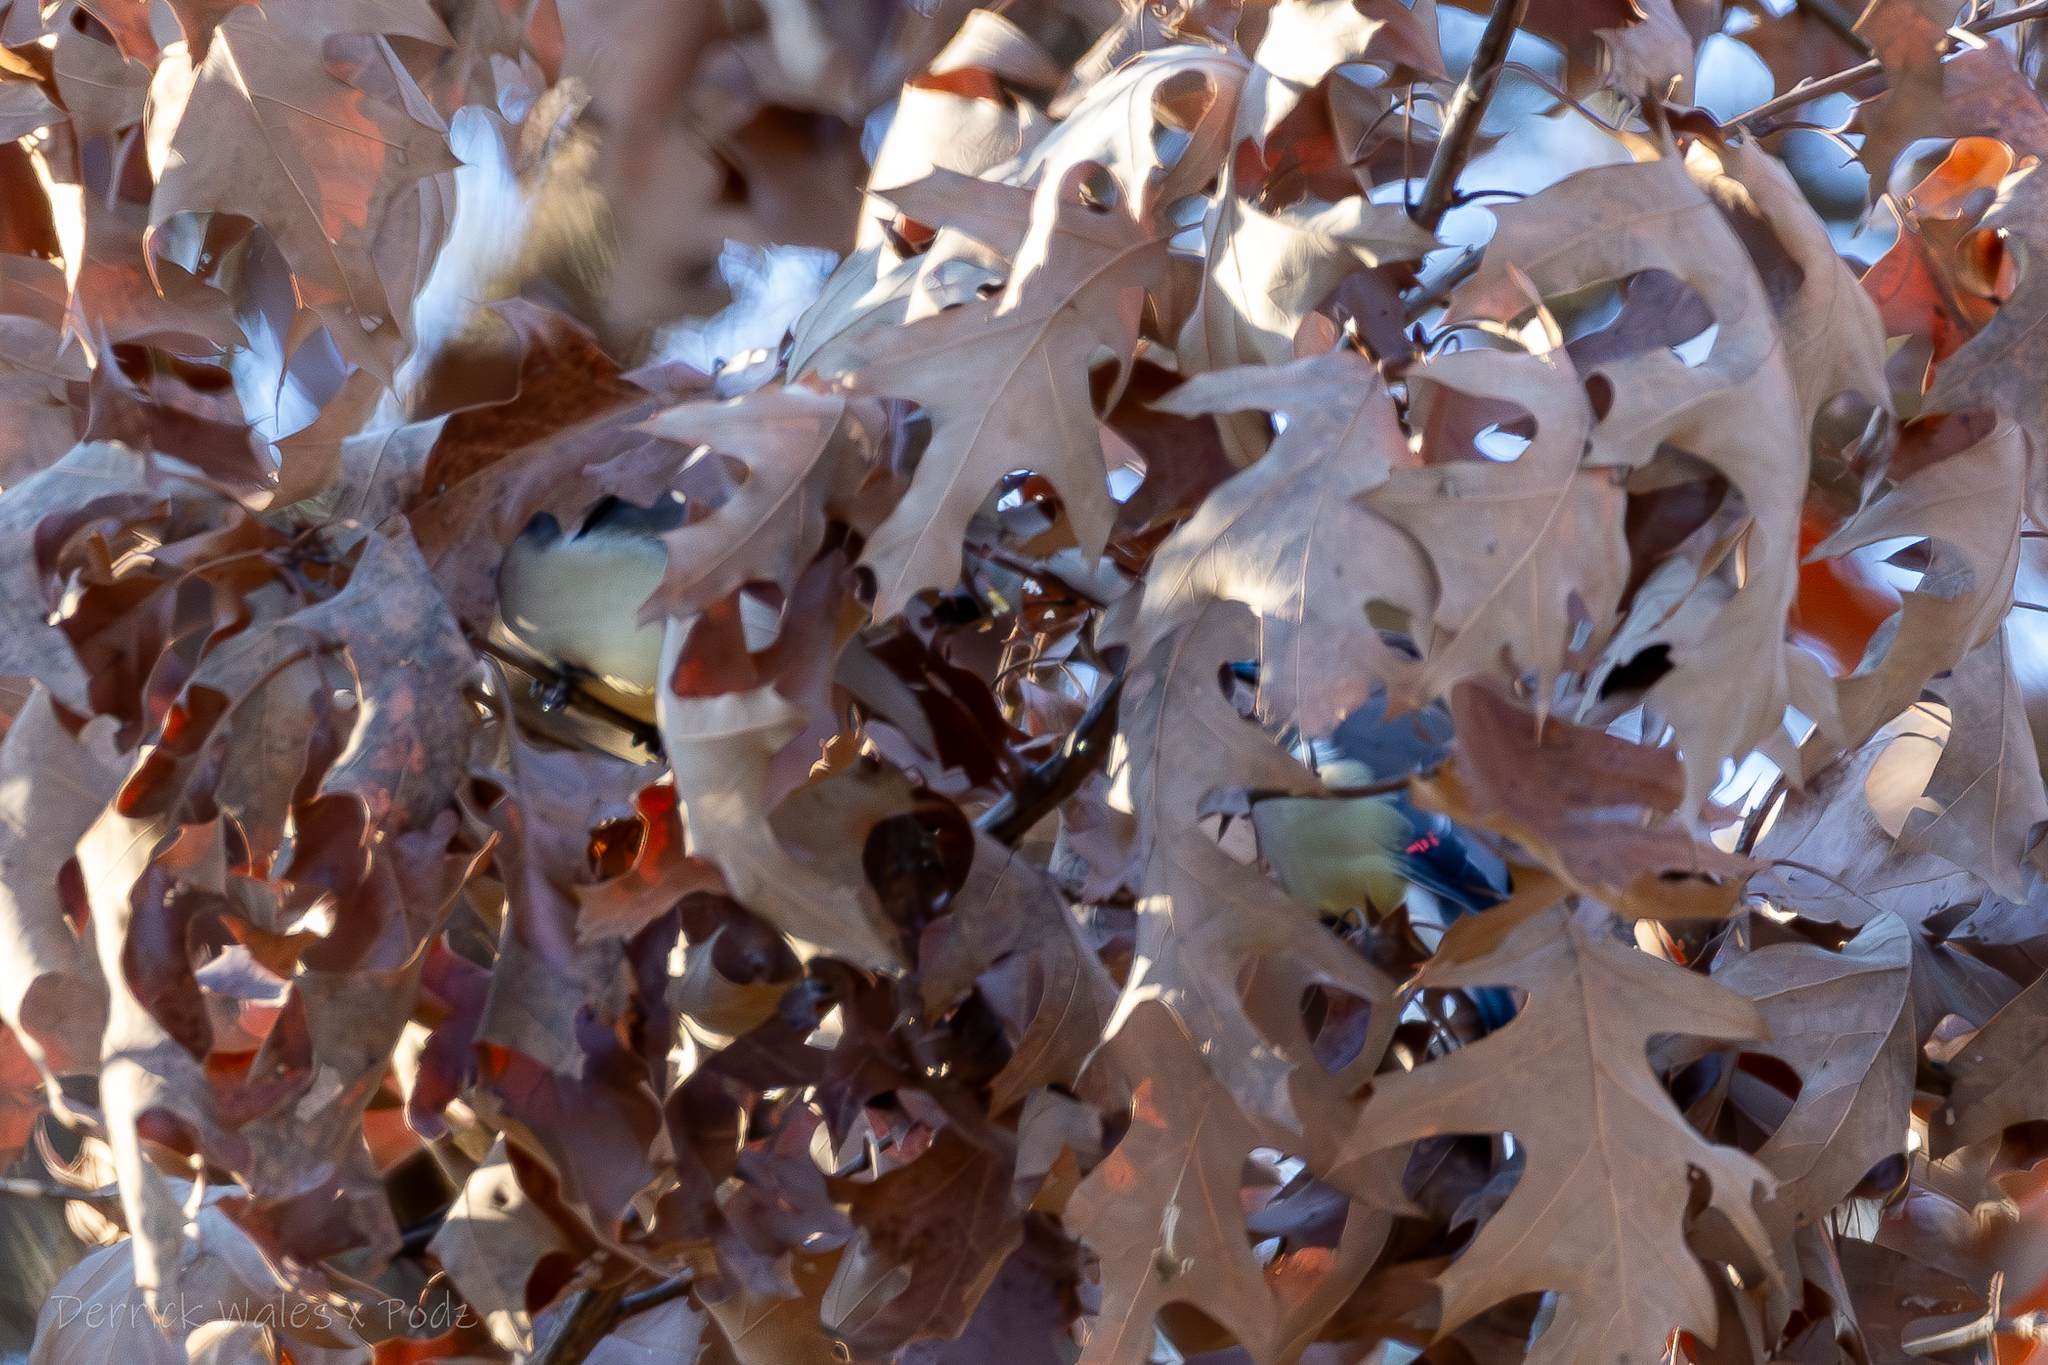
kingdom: Animalia
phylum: Chordata
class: Aves
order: Passeriformes
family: Bombycillidae
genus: Bombycilla
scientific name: Bombycilla cedrorum
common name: Cedar waxwing
